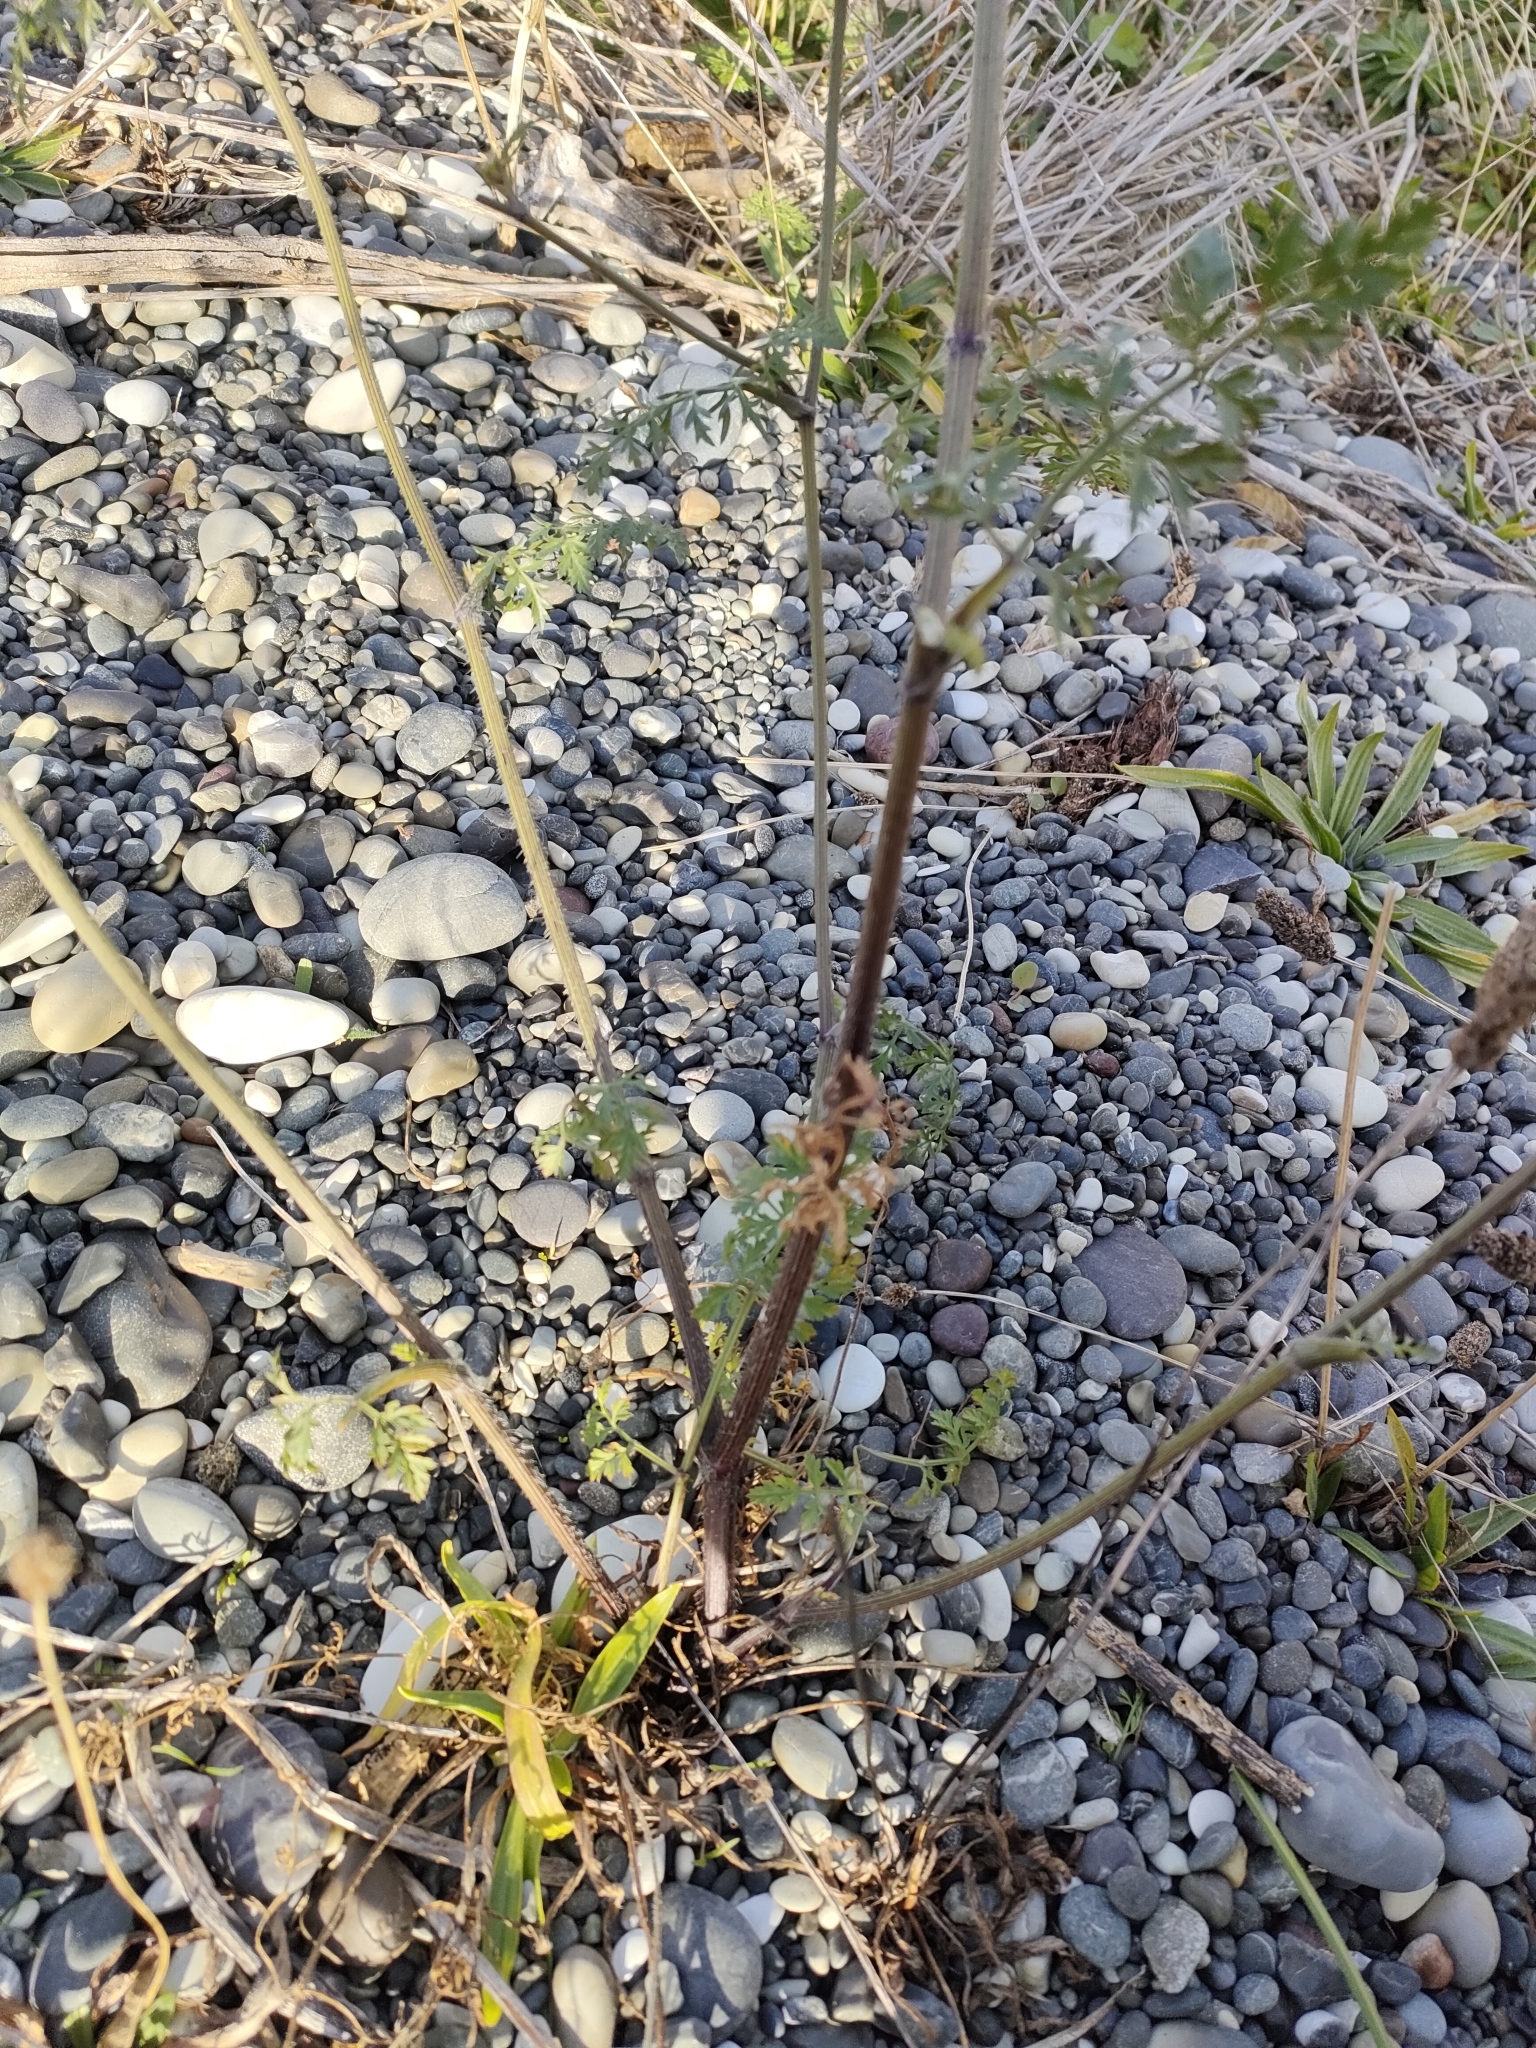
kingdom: Plantae
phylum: Tracheophyta
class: Magnoliopsida
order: Apiales
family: Apiaceae
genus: Daucus
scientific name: Daucus carota
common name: Wild carrot
